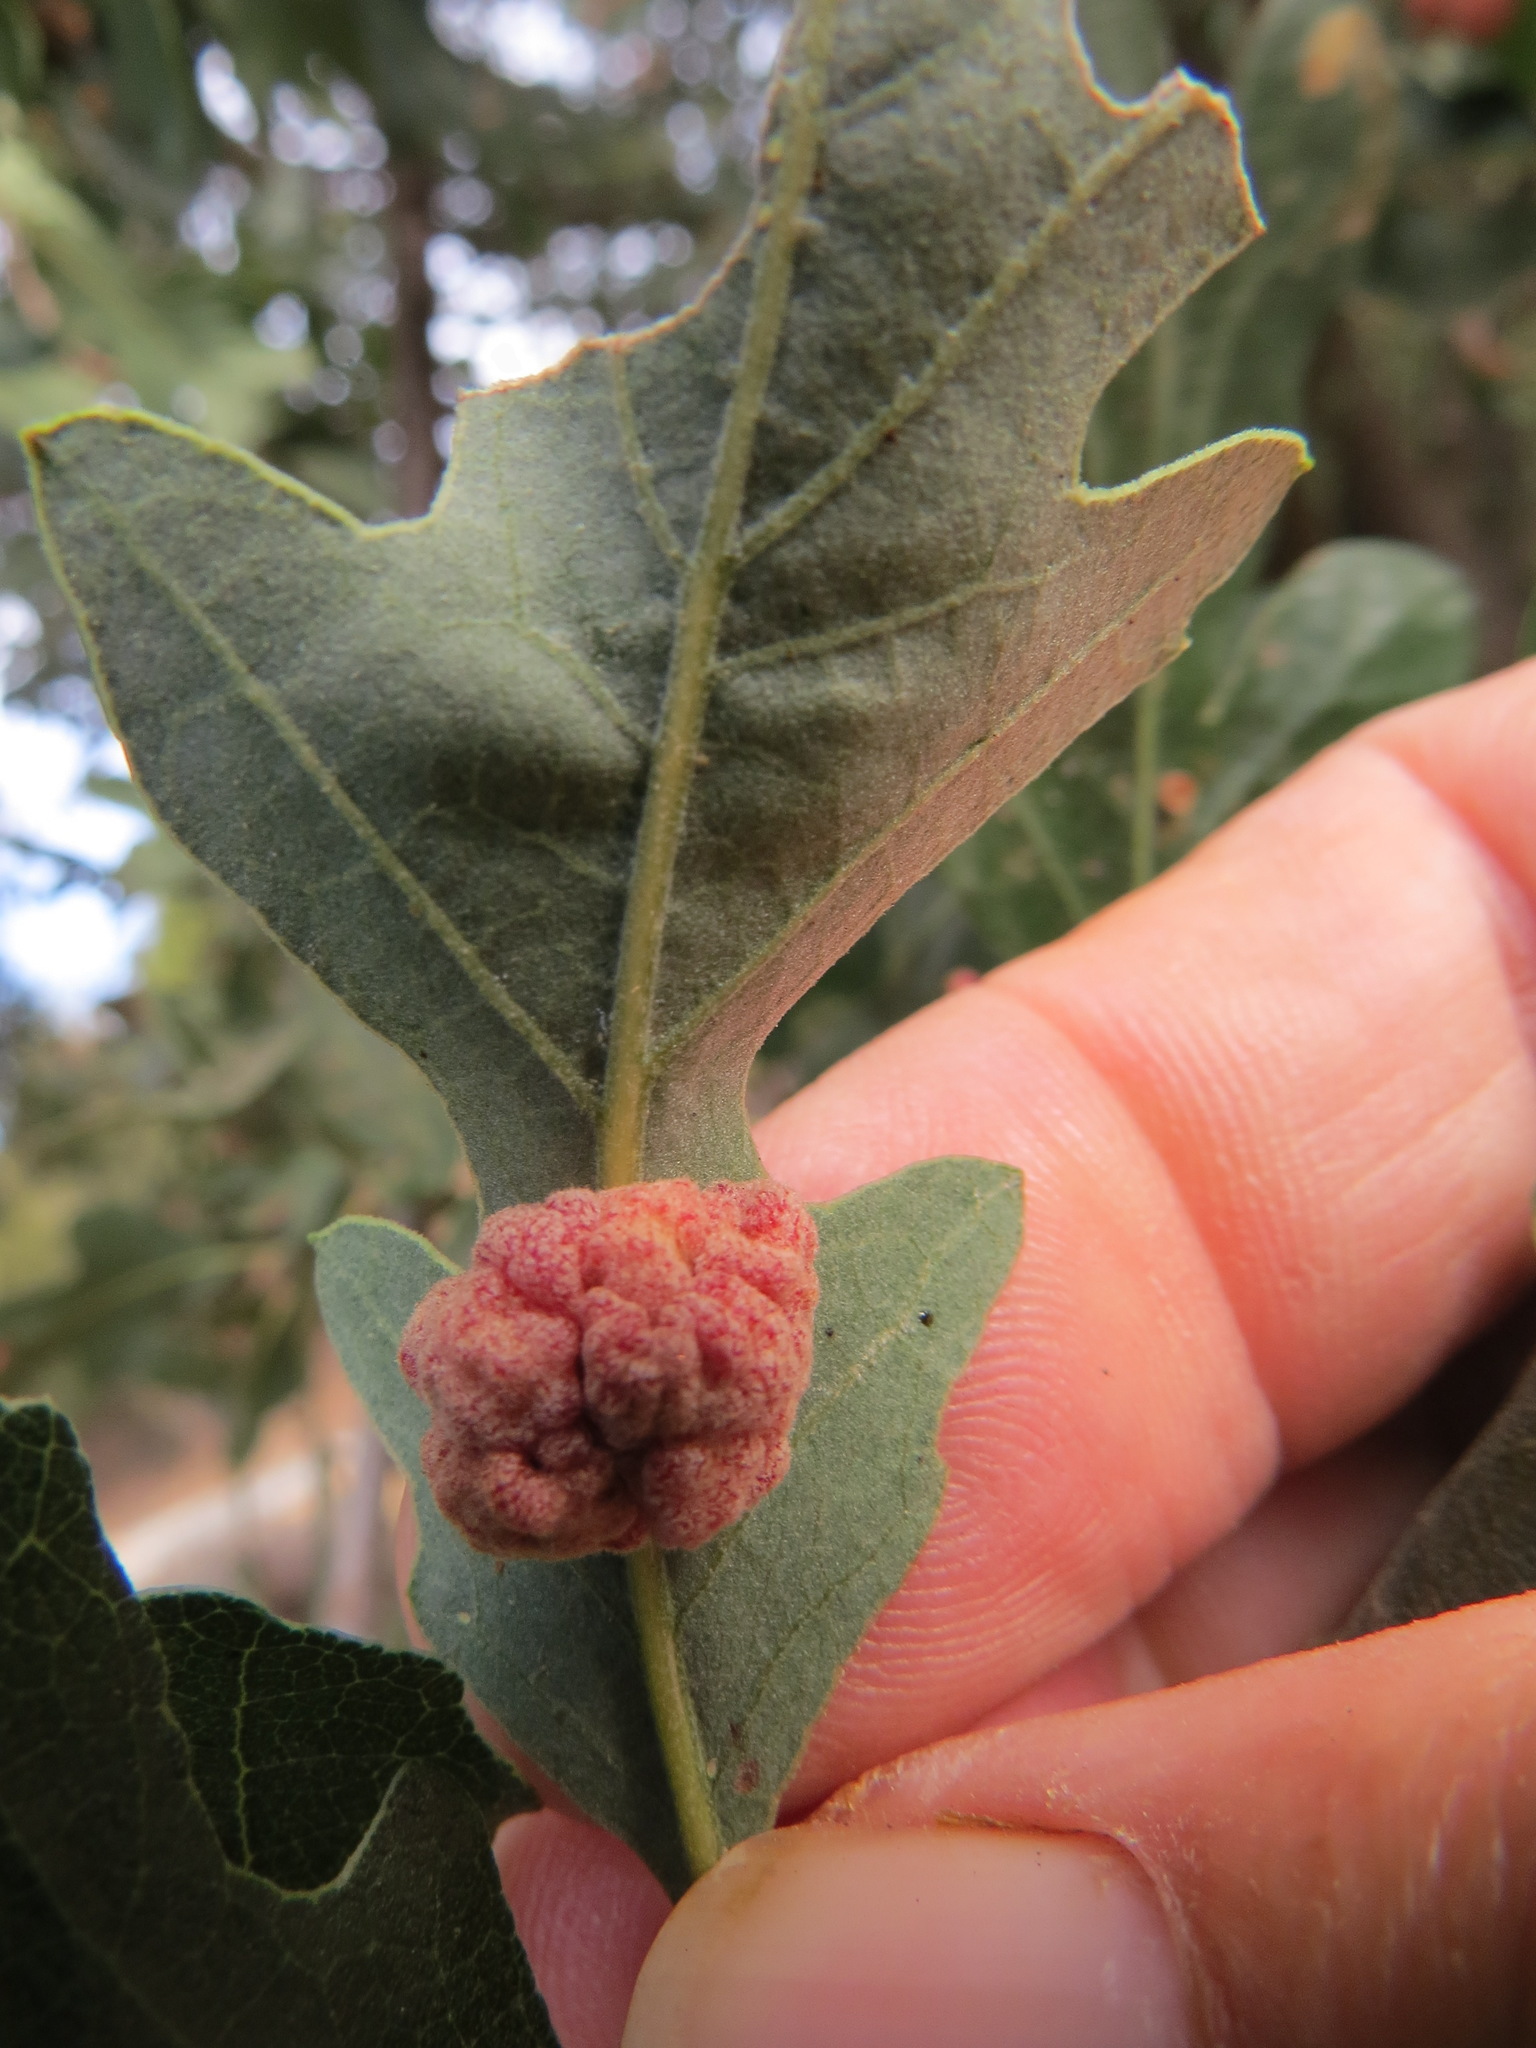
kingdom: Animalia
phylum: Arthropoda
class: Insecta
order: Hymenoptera
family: Cynipidae
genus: Andricus
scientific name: Andricus
